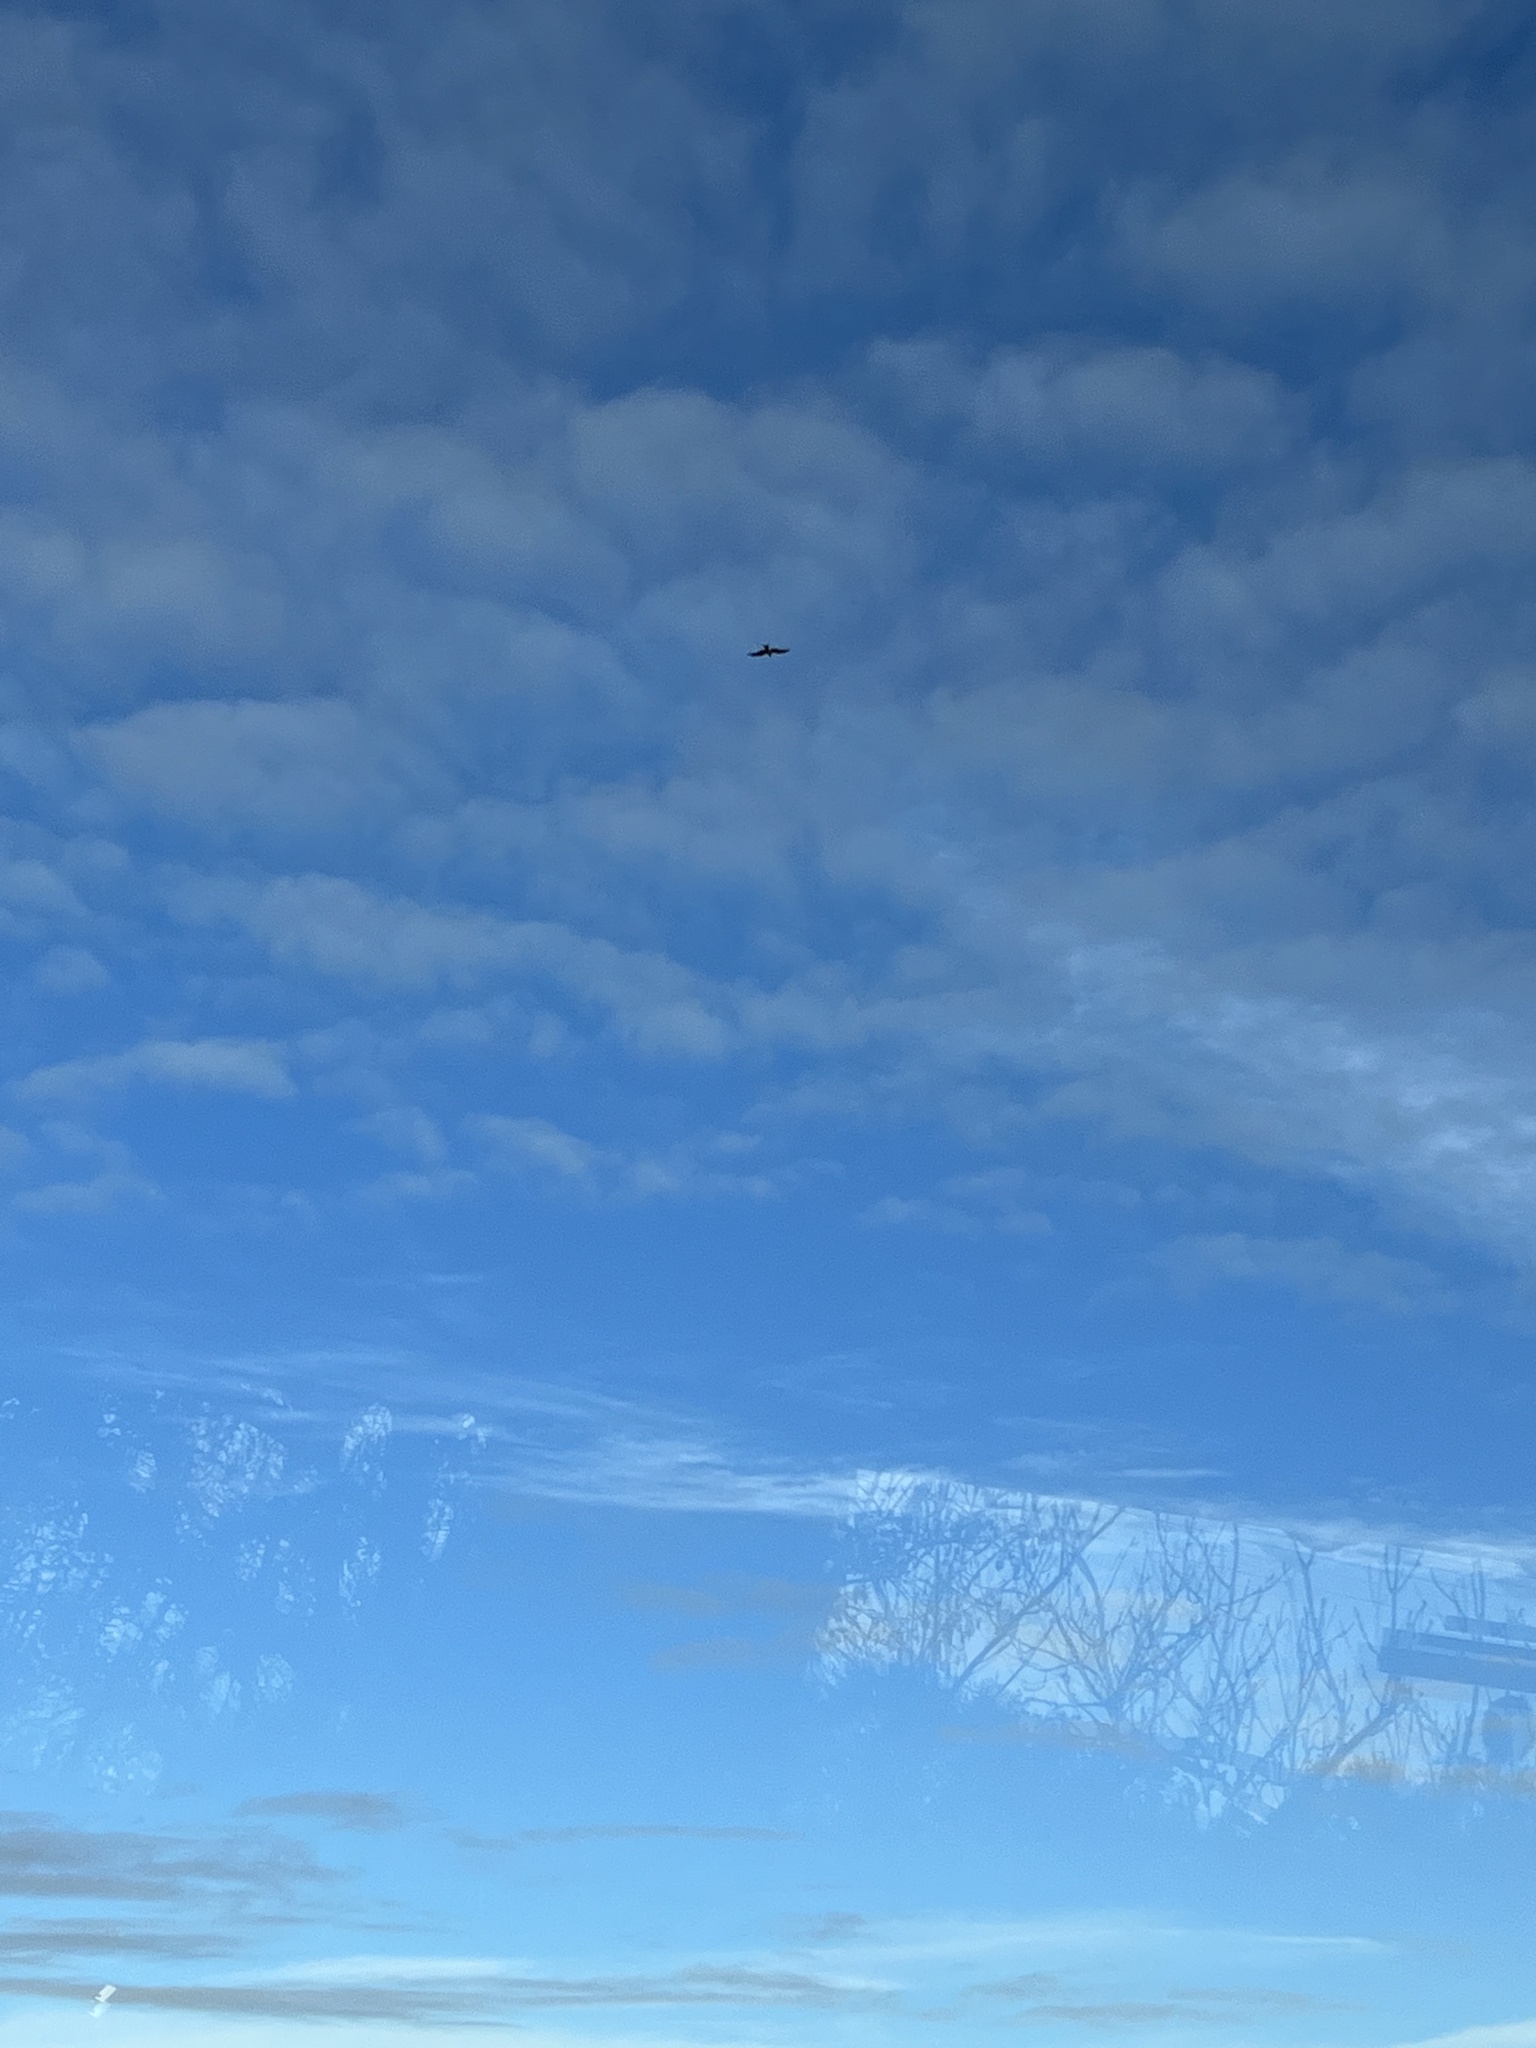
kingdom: Animalia
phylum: Chordata
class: Aves
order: Accipitriformes
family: Accipitridae
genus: Milvus
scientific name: Milvus milvus
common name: Red kite
